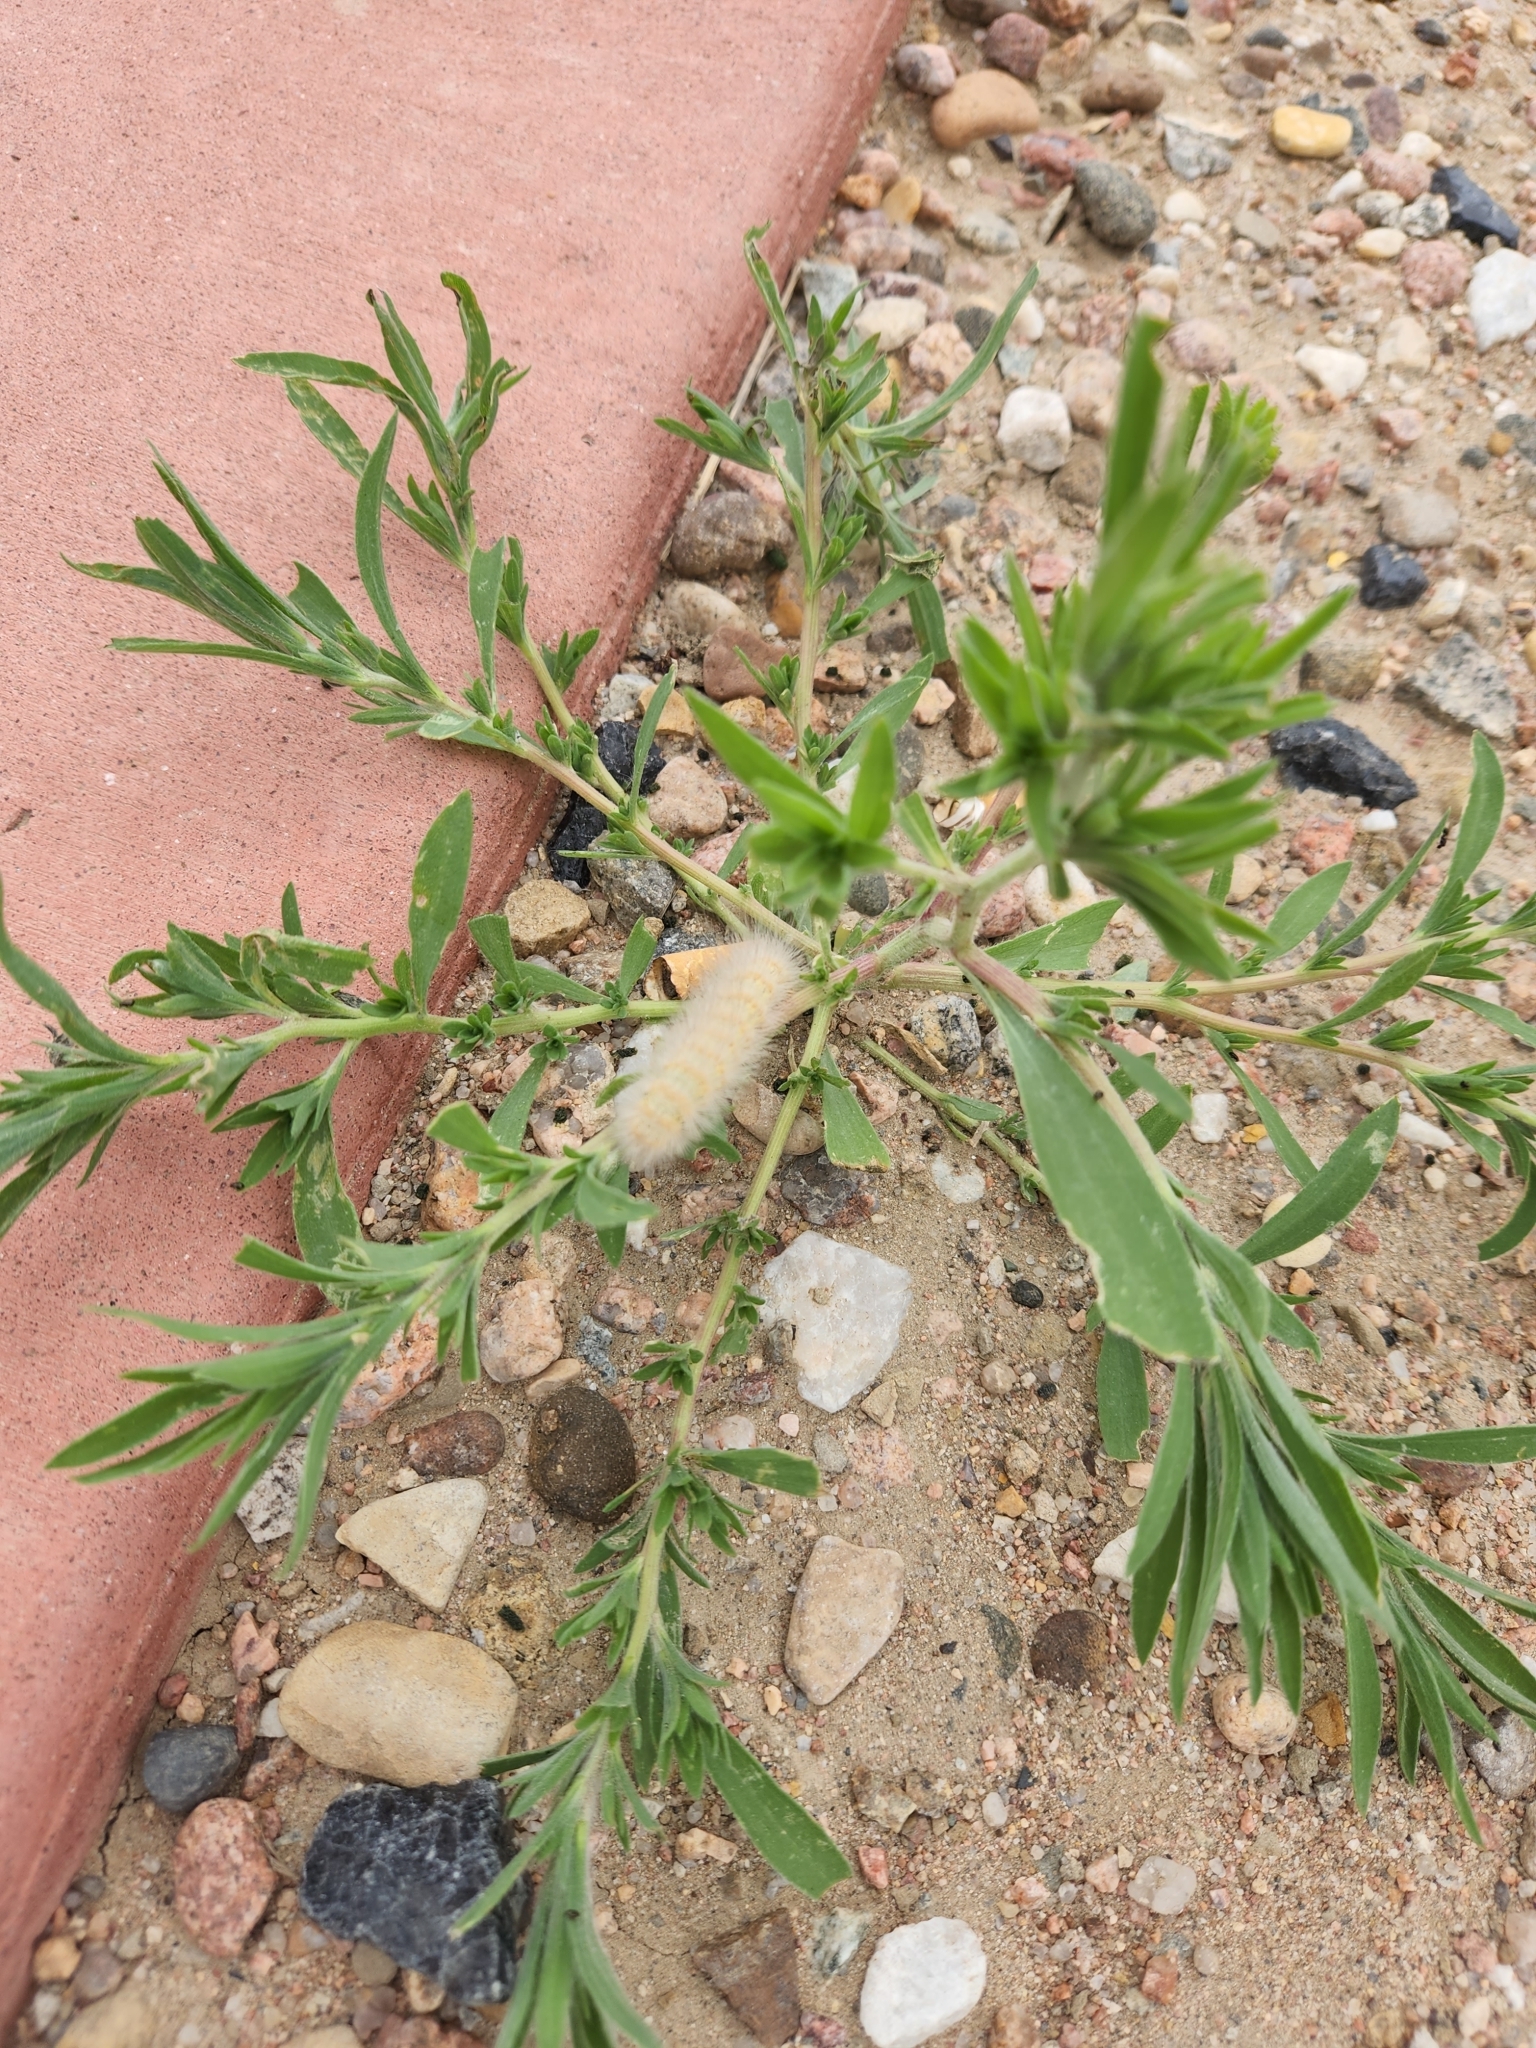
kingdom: Animalia
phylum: Arthropoda
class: Insecta
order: Lepidoptera
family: Erebidae
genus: Estigmene
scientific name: Estigmene
